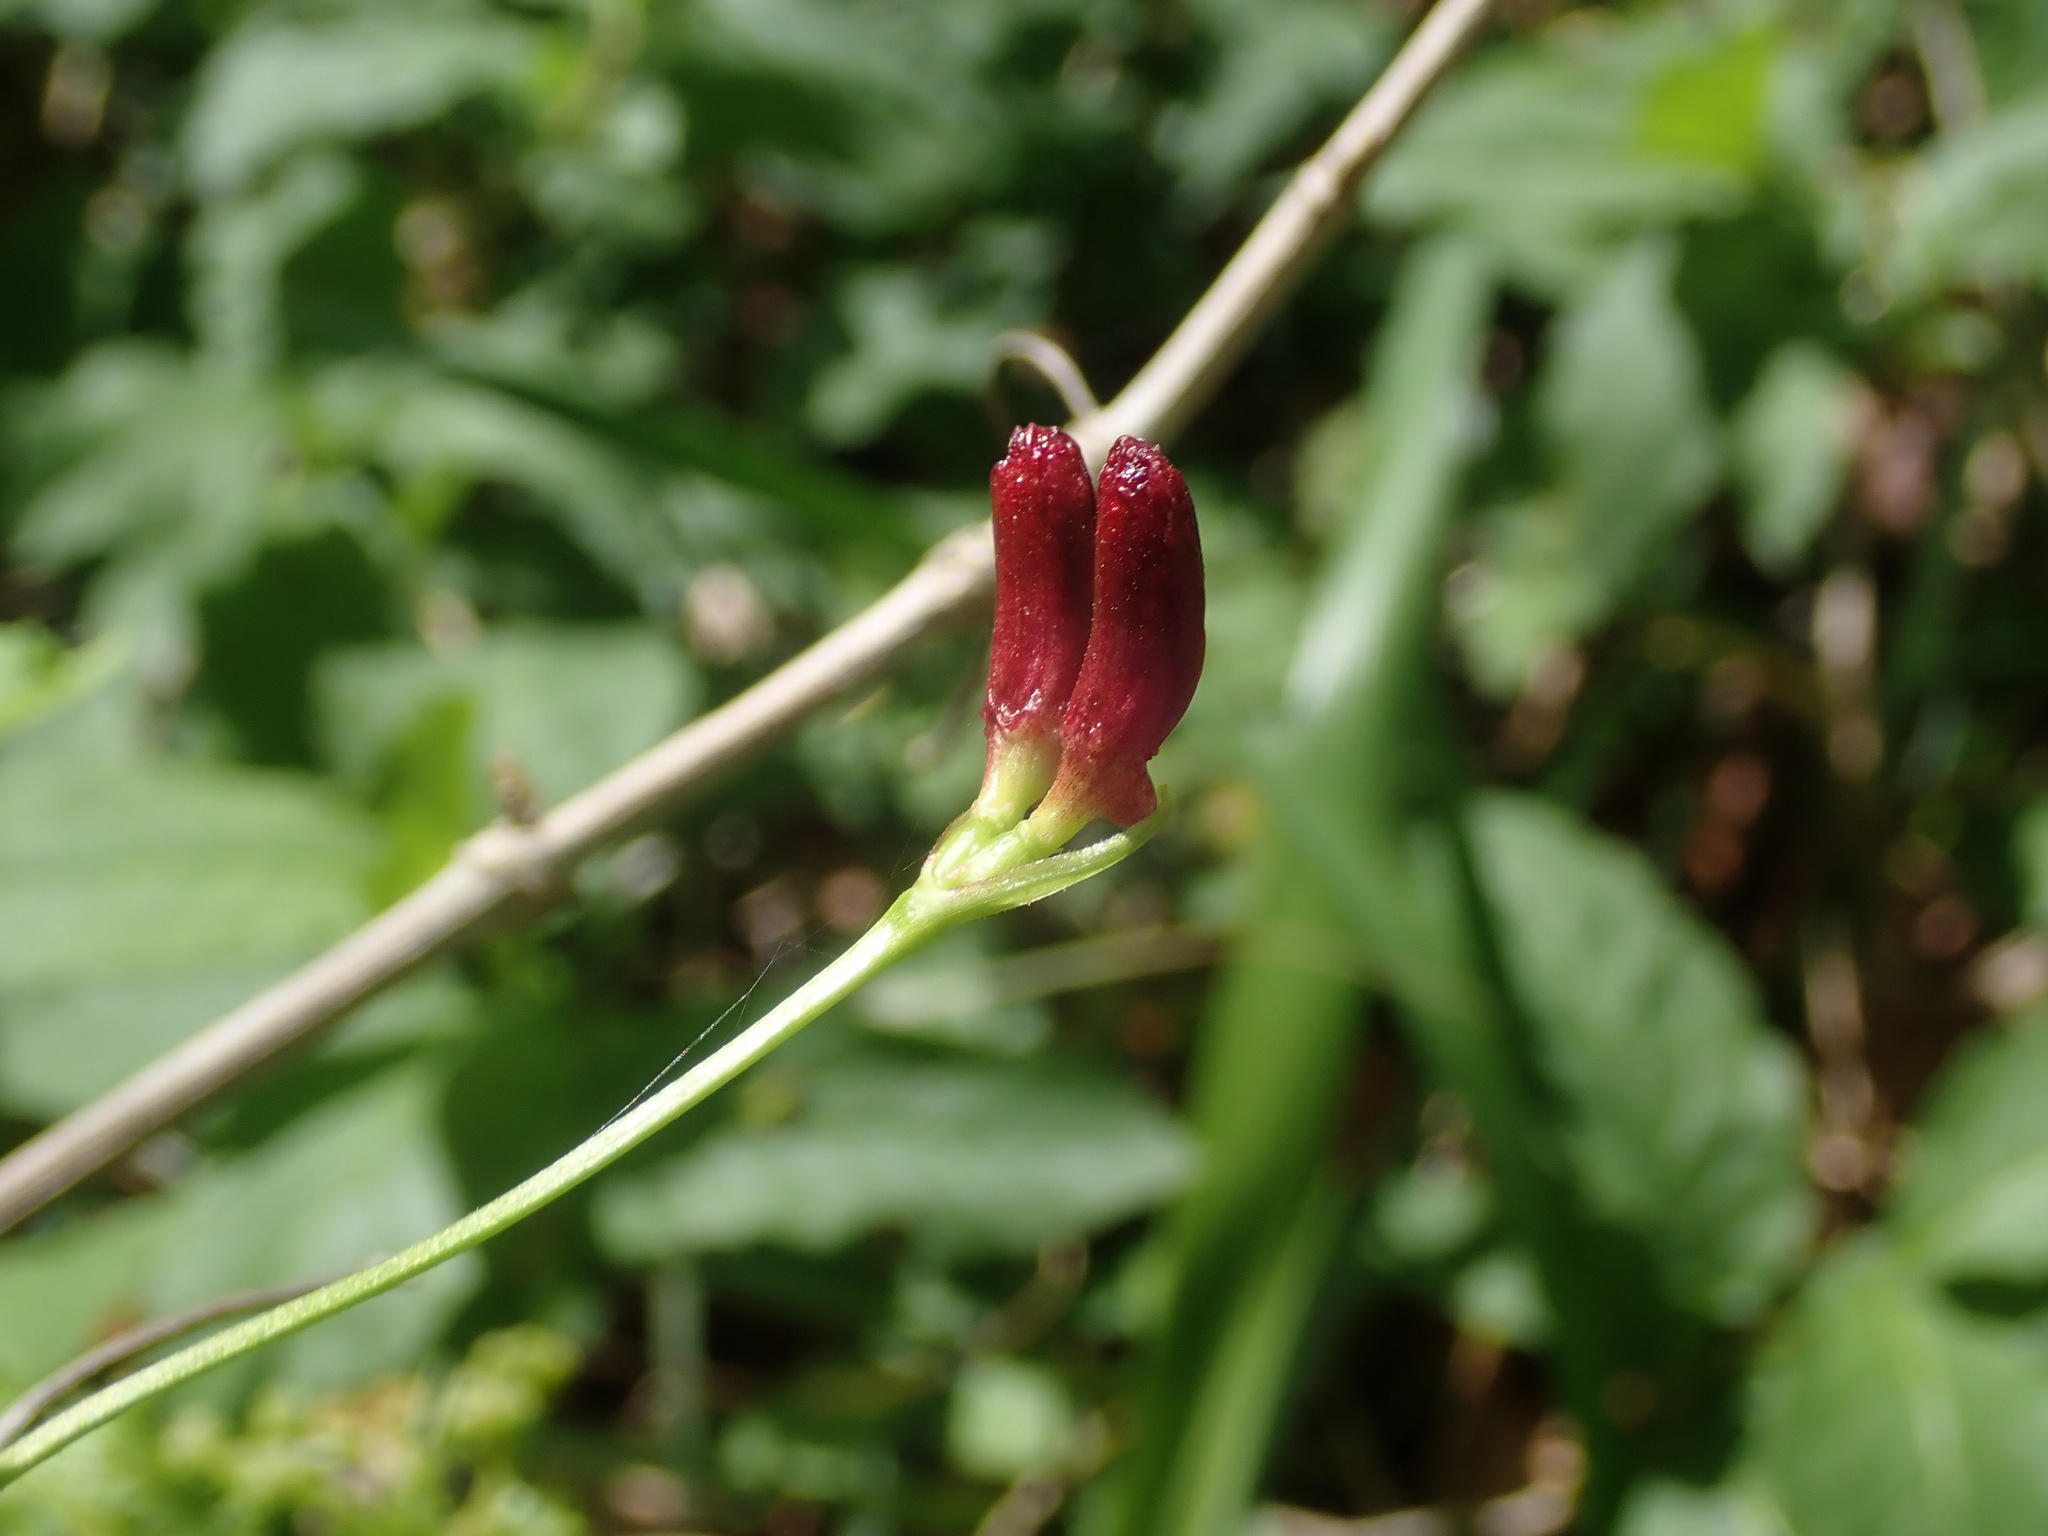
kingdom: Plantae
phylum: Tracheophyta
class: Magnoliopsida
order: Dipsacales
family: Caprifoliaceae
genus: Lonicera
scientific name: Lonicera alpigena
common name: Alpine honeysuckle
